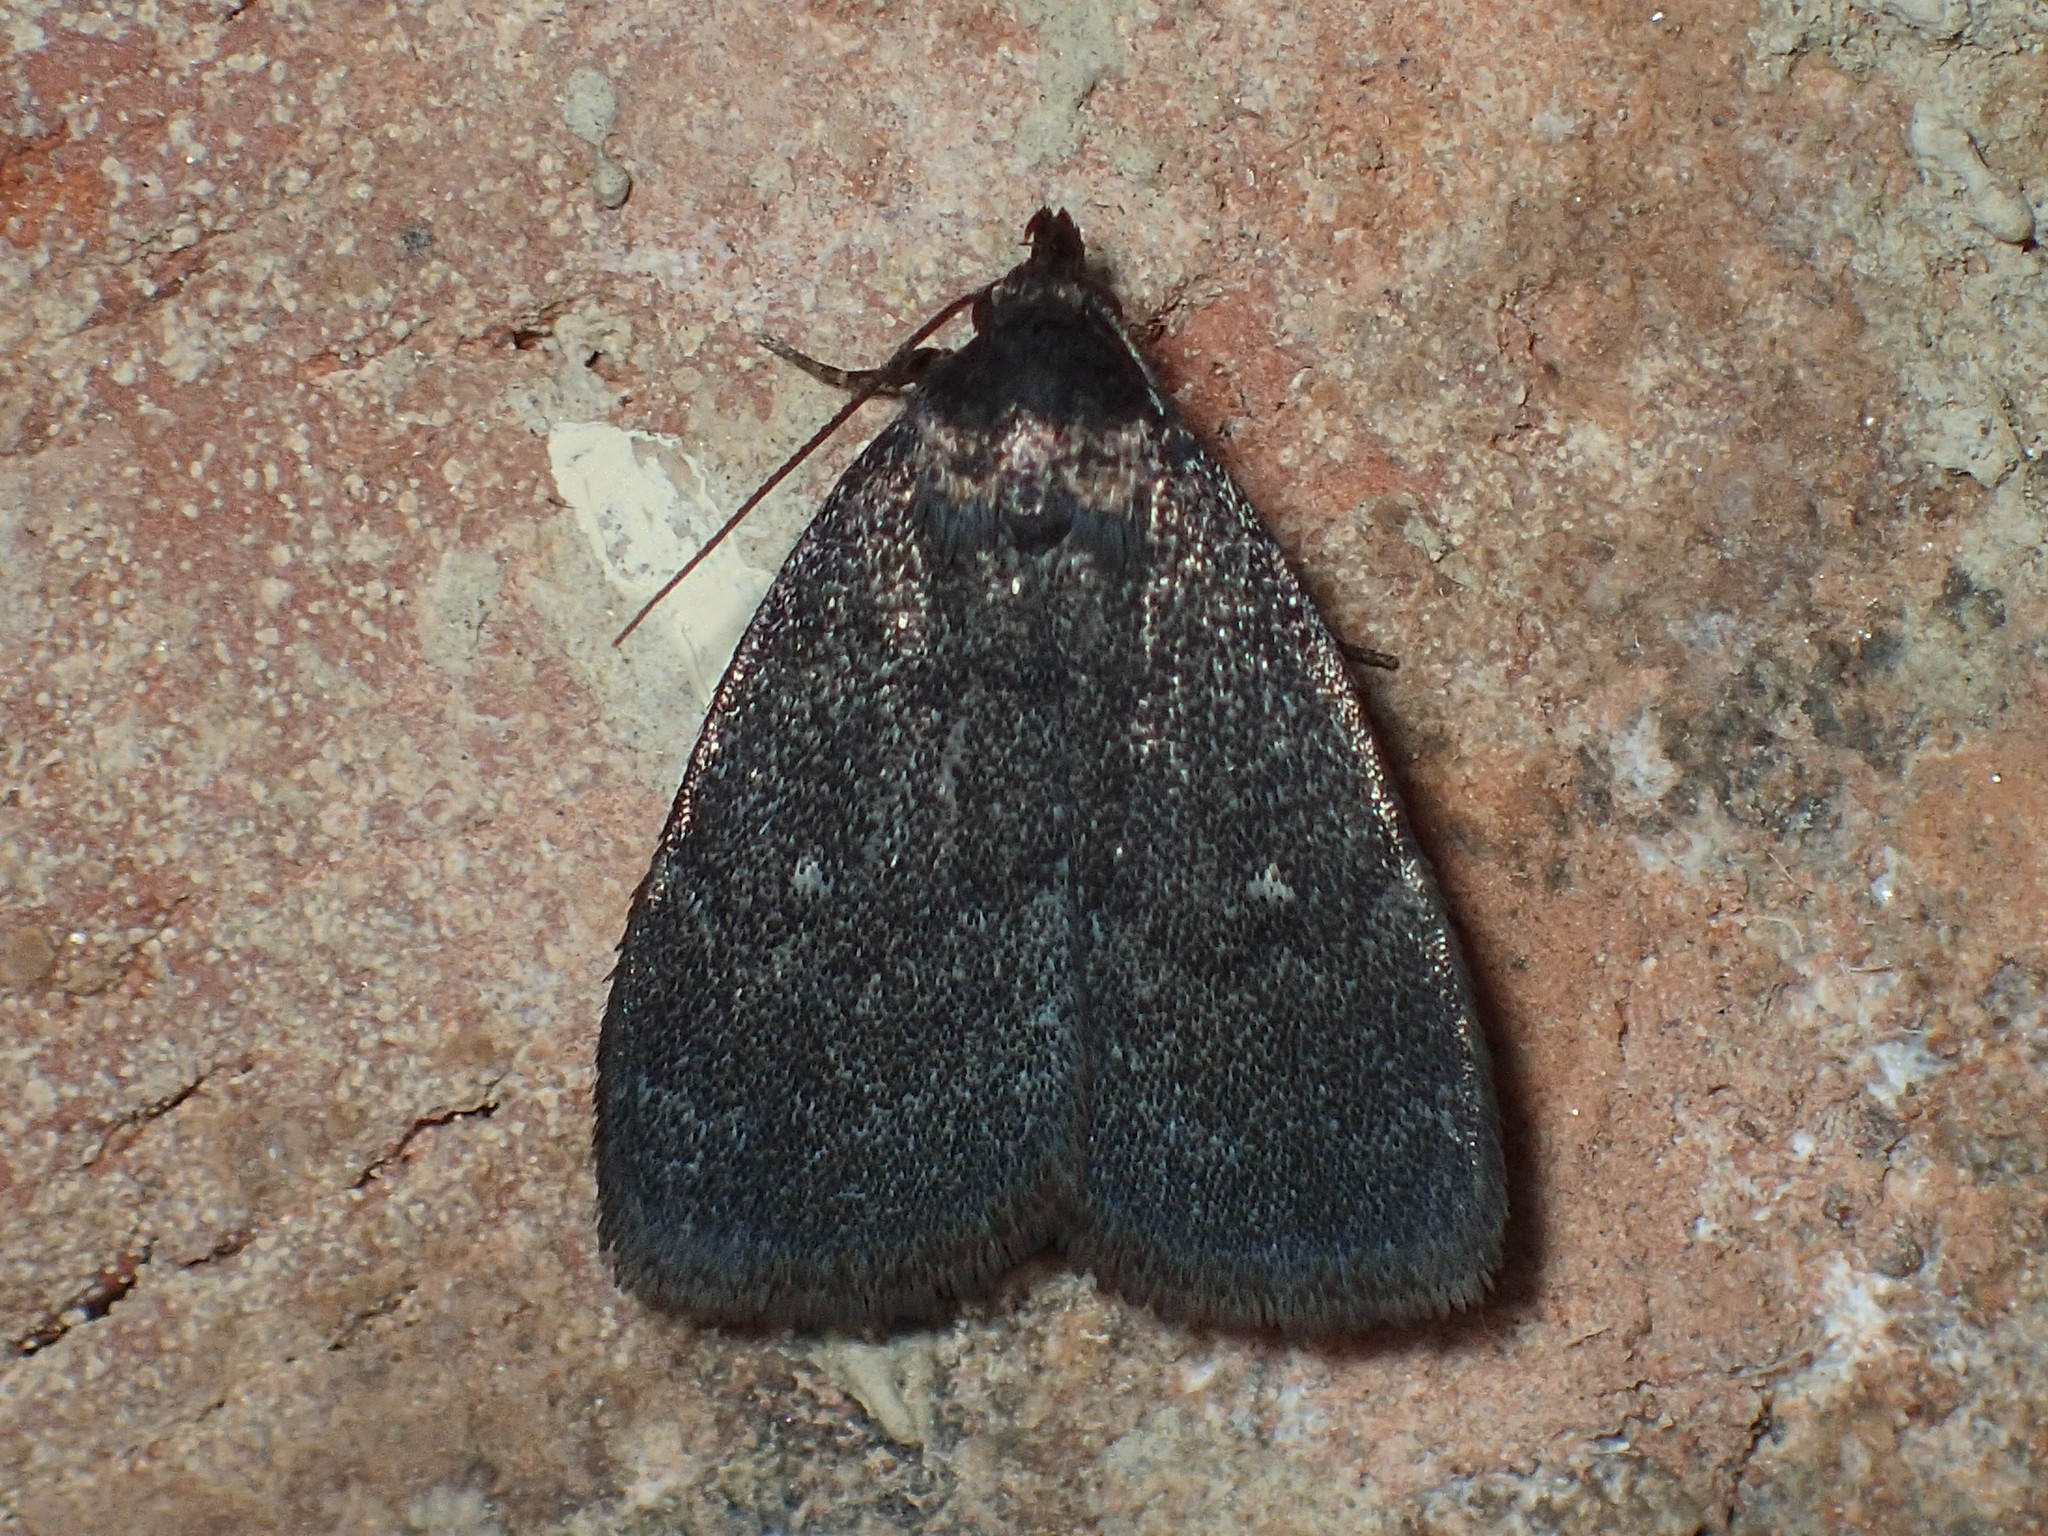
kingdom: Animalia
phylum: Arthropoda
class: Insecta
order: Lepidoptera
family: Erebidae
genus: Idia
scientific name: Idia rotundalis
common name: Rotund idia moth
